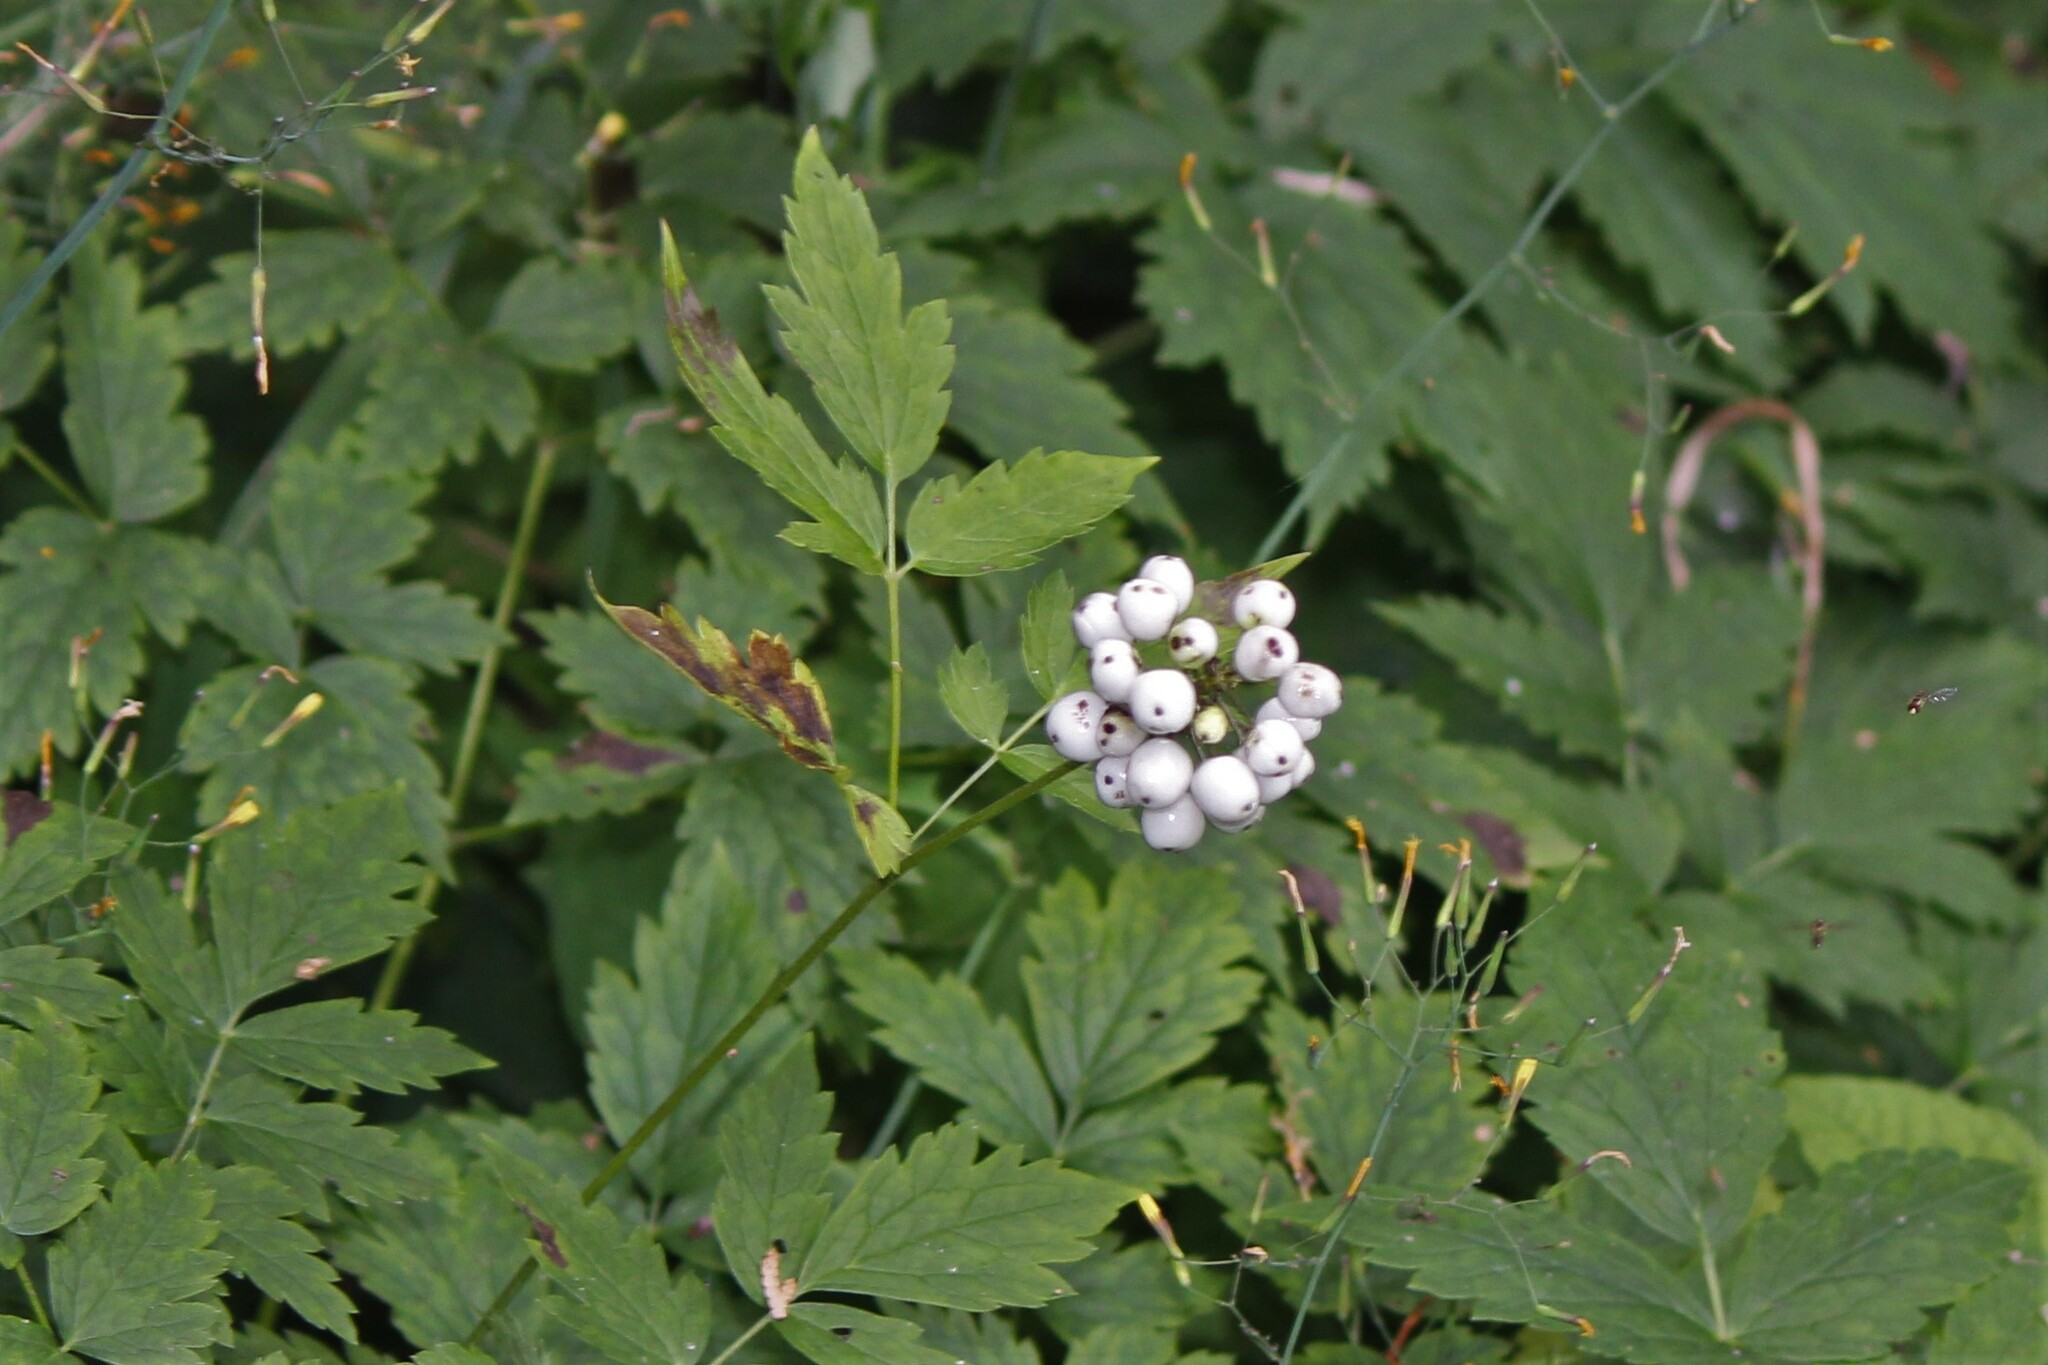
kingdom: Plantae
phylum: Tracheophyta
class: Magnoliopsida
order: Ranunculales
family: Ranunculaceae
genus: Actaea
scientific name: Actaea rubra
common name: Red baneberry
